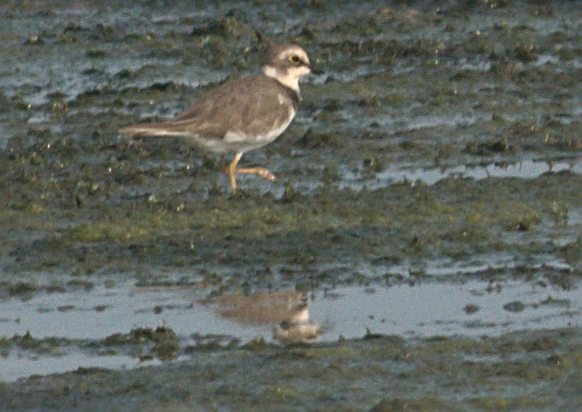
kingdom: Animalia
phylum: Chordata
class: Aves
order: Charadriiformes
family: Charadriidae
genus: Charadrius
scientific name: Charadrius dubius
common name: Little ringed plover
